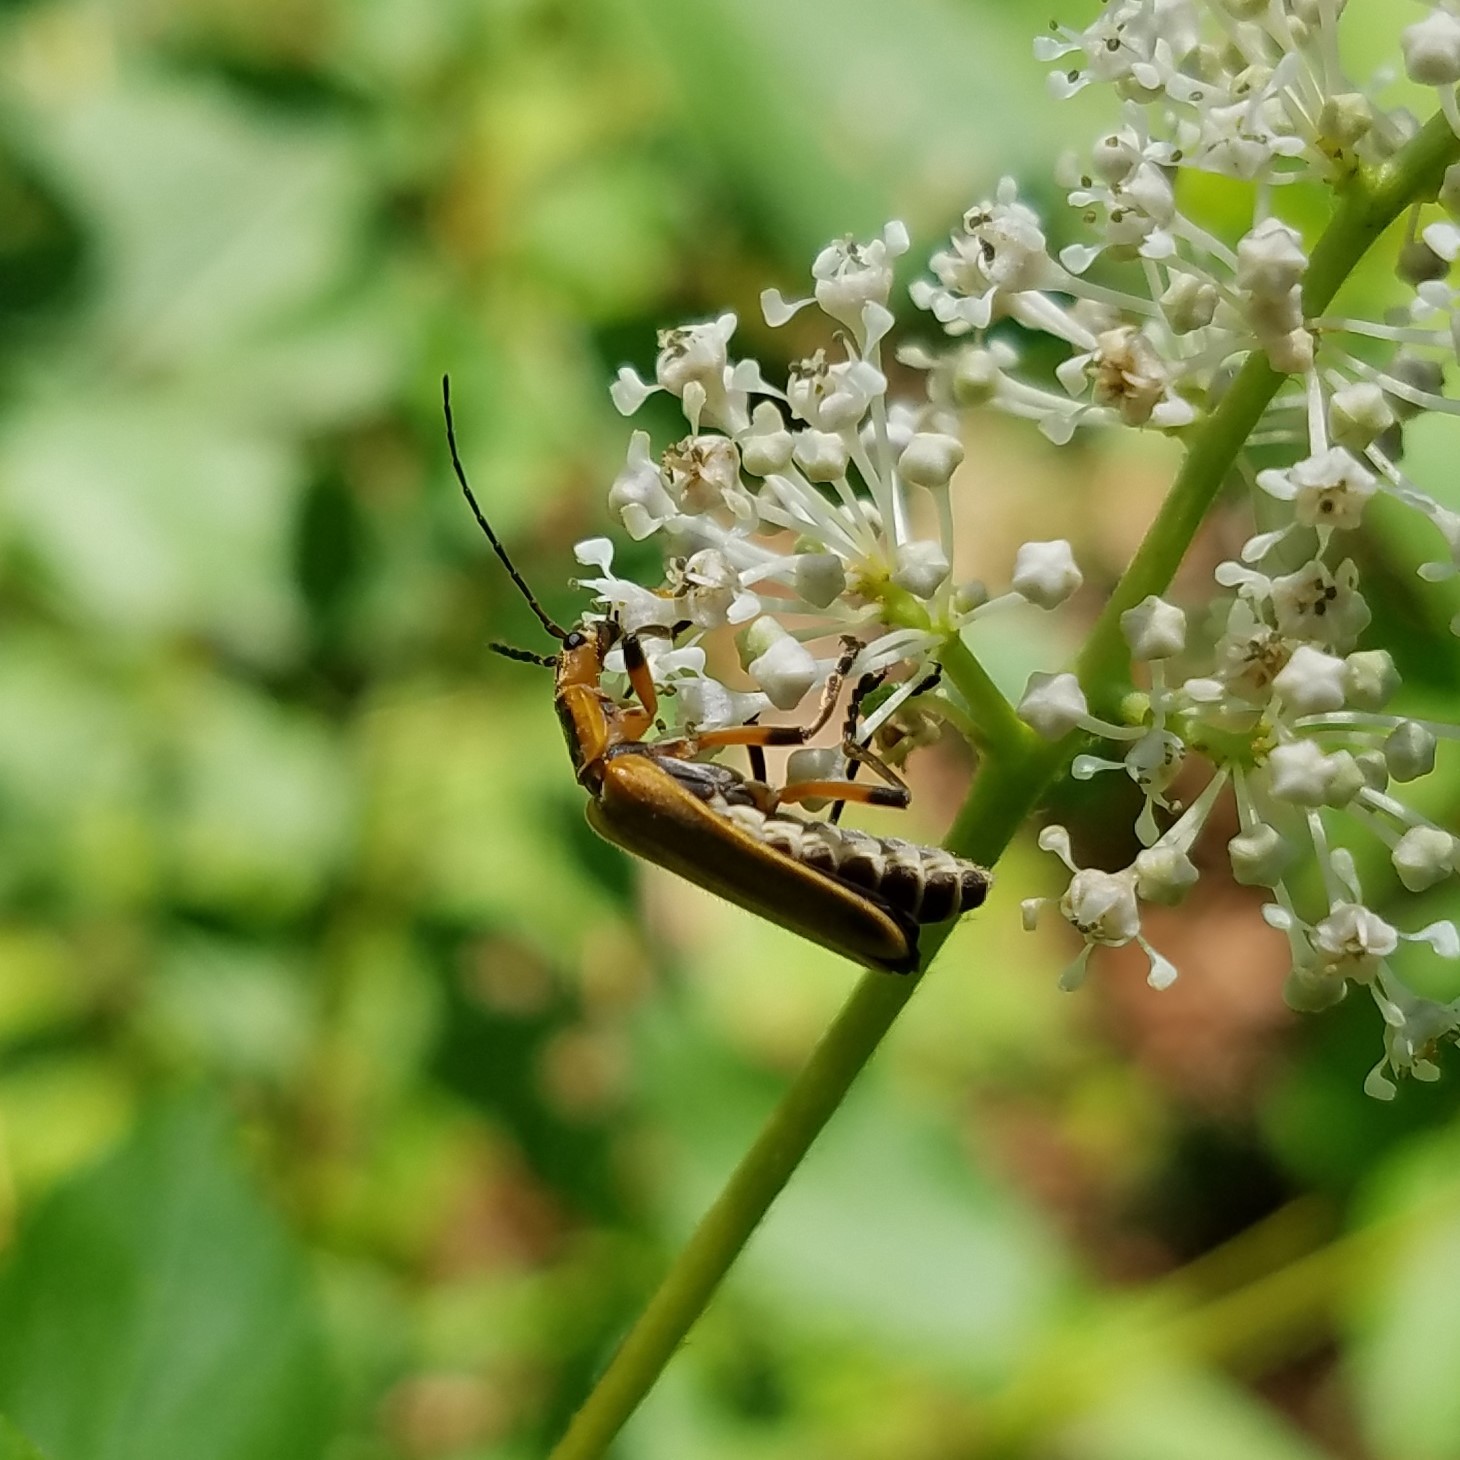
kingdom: Animalia
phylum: Arthropoda
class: Insecta
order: Coleoptera
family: Cantharidae
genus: Chauliognathus
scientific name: Chauliognathus marginatus
